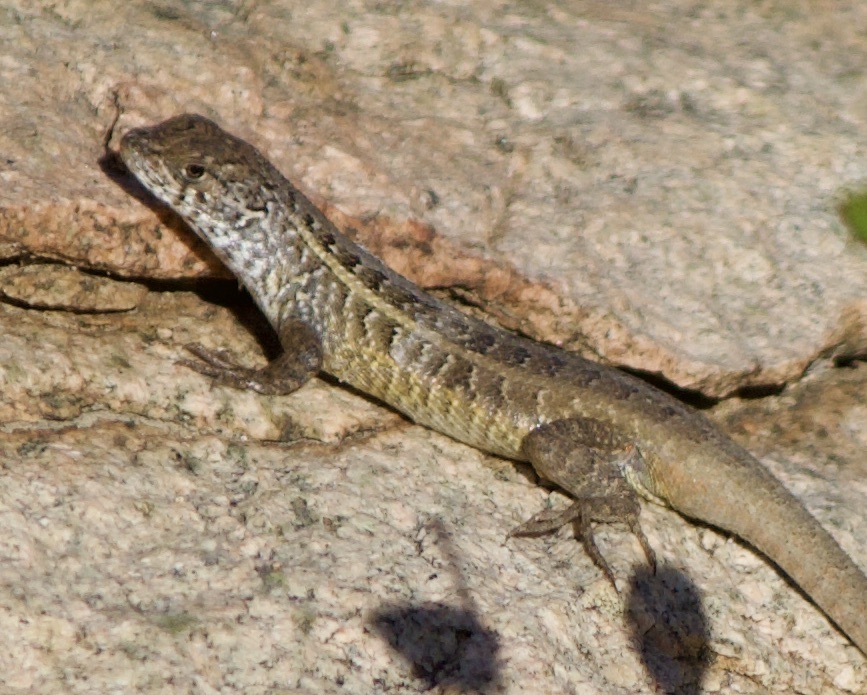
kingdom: Animalia
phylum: Chordata
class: Squamata
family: Liolaemidae
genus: Liolaemus
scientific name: Liolaemus pseudolemniscatus
